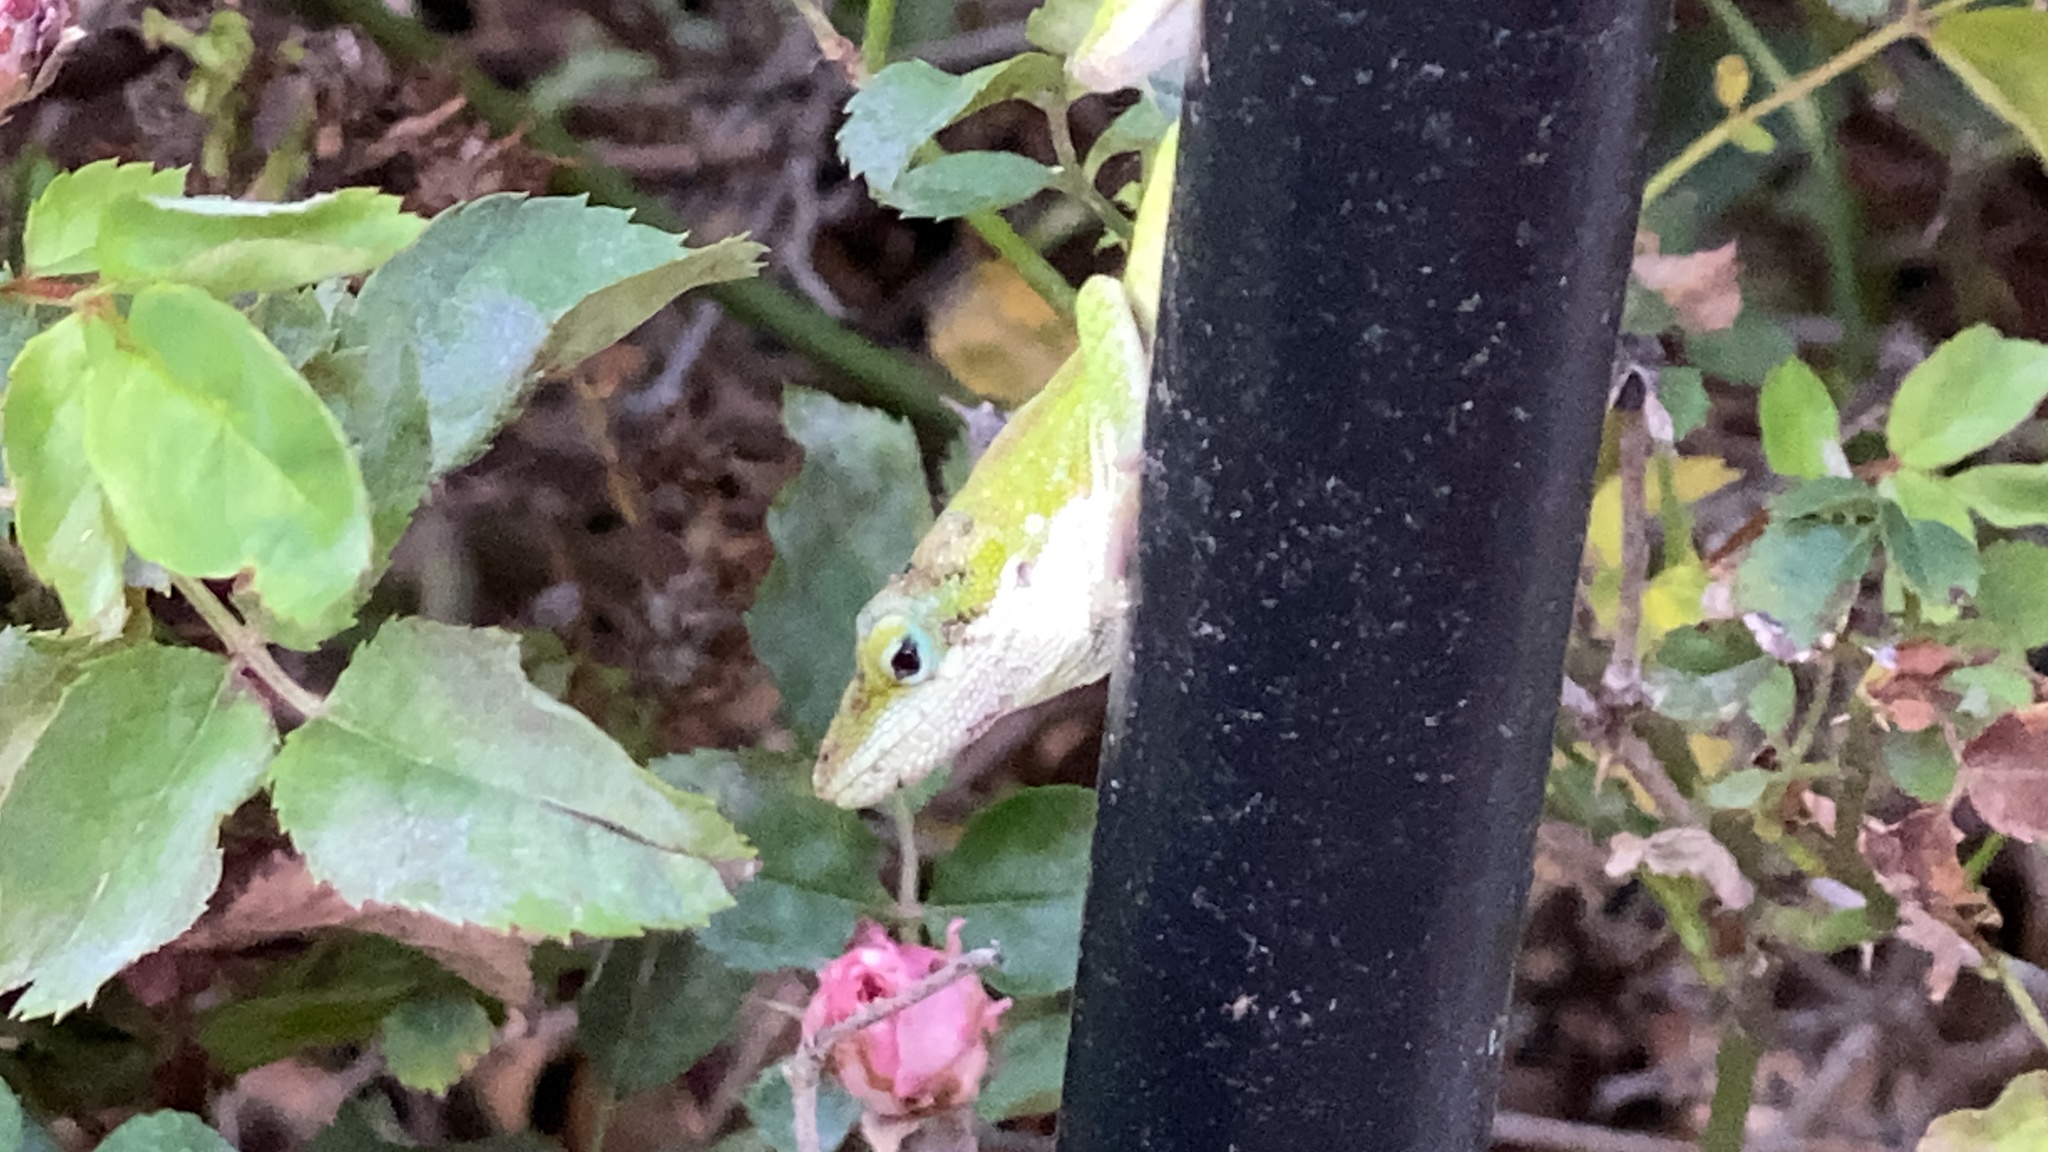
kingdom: Animalia
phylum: Chordata
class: Squamata
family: Dactyloidae
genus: Anolis
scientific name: Anolis carolinensis
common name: Green anole
